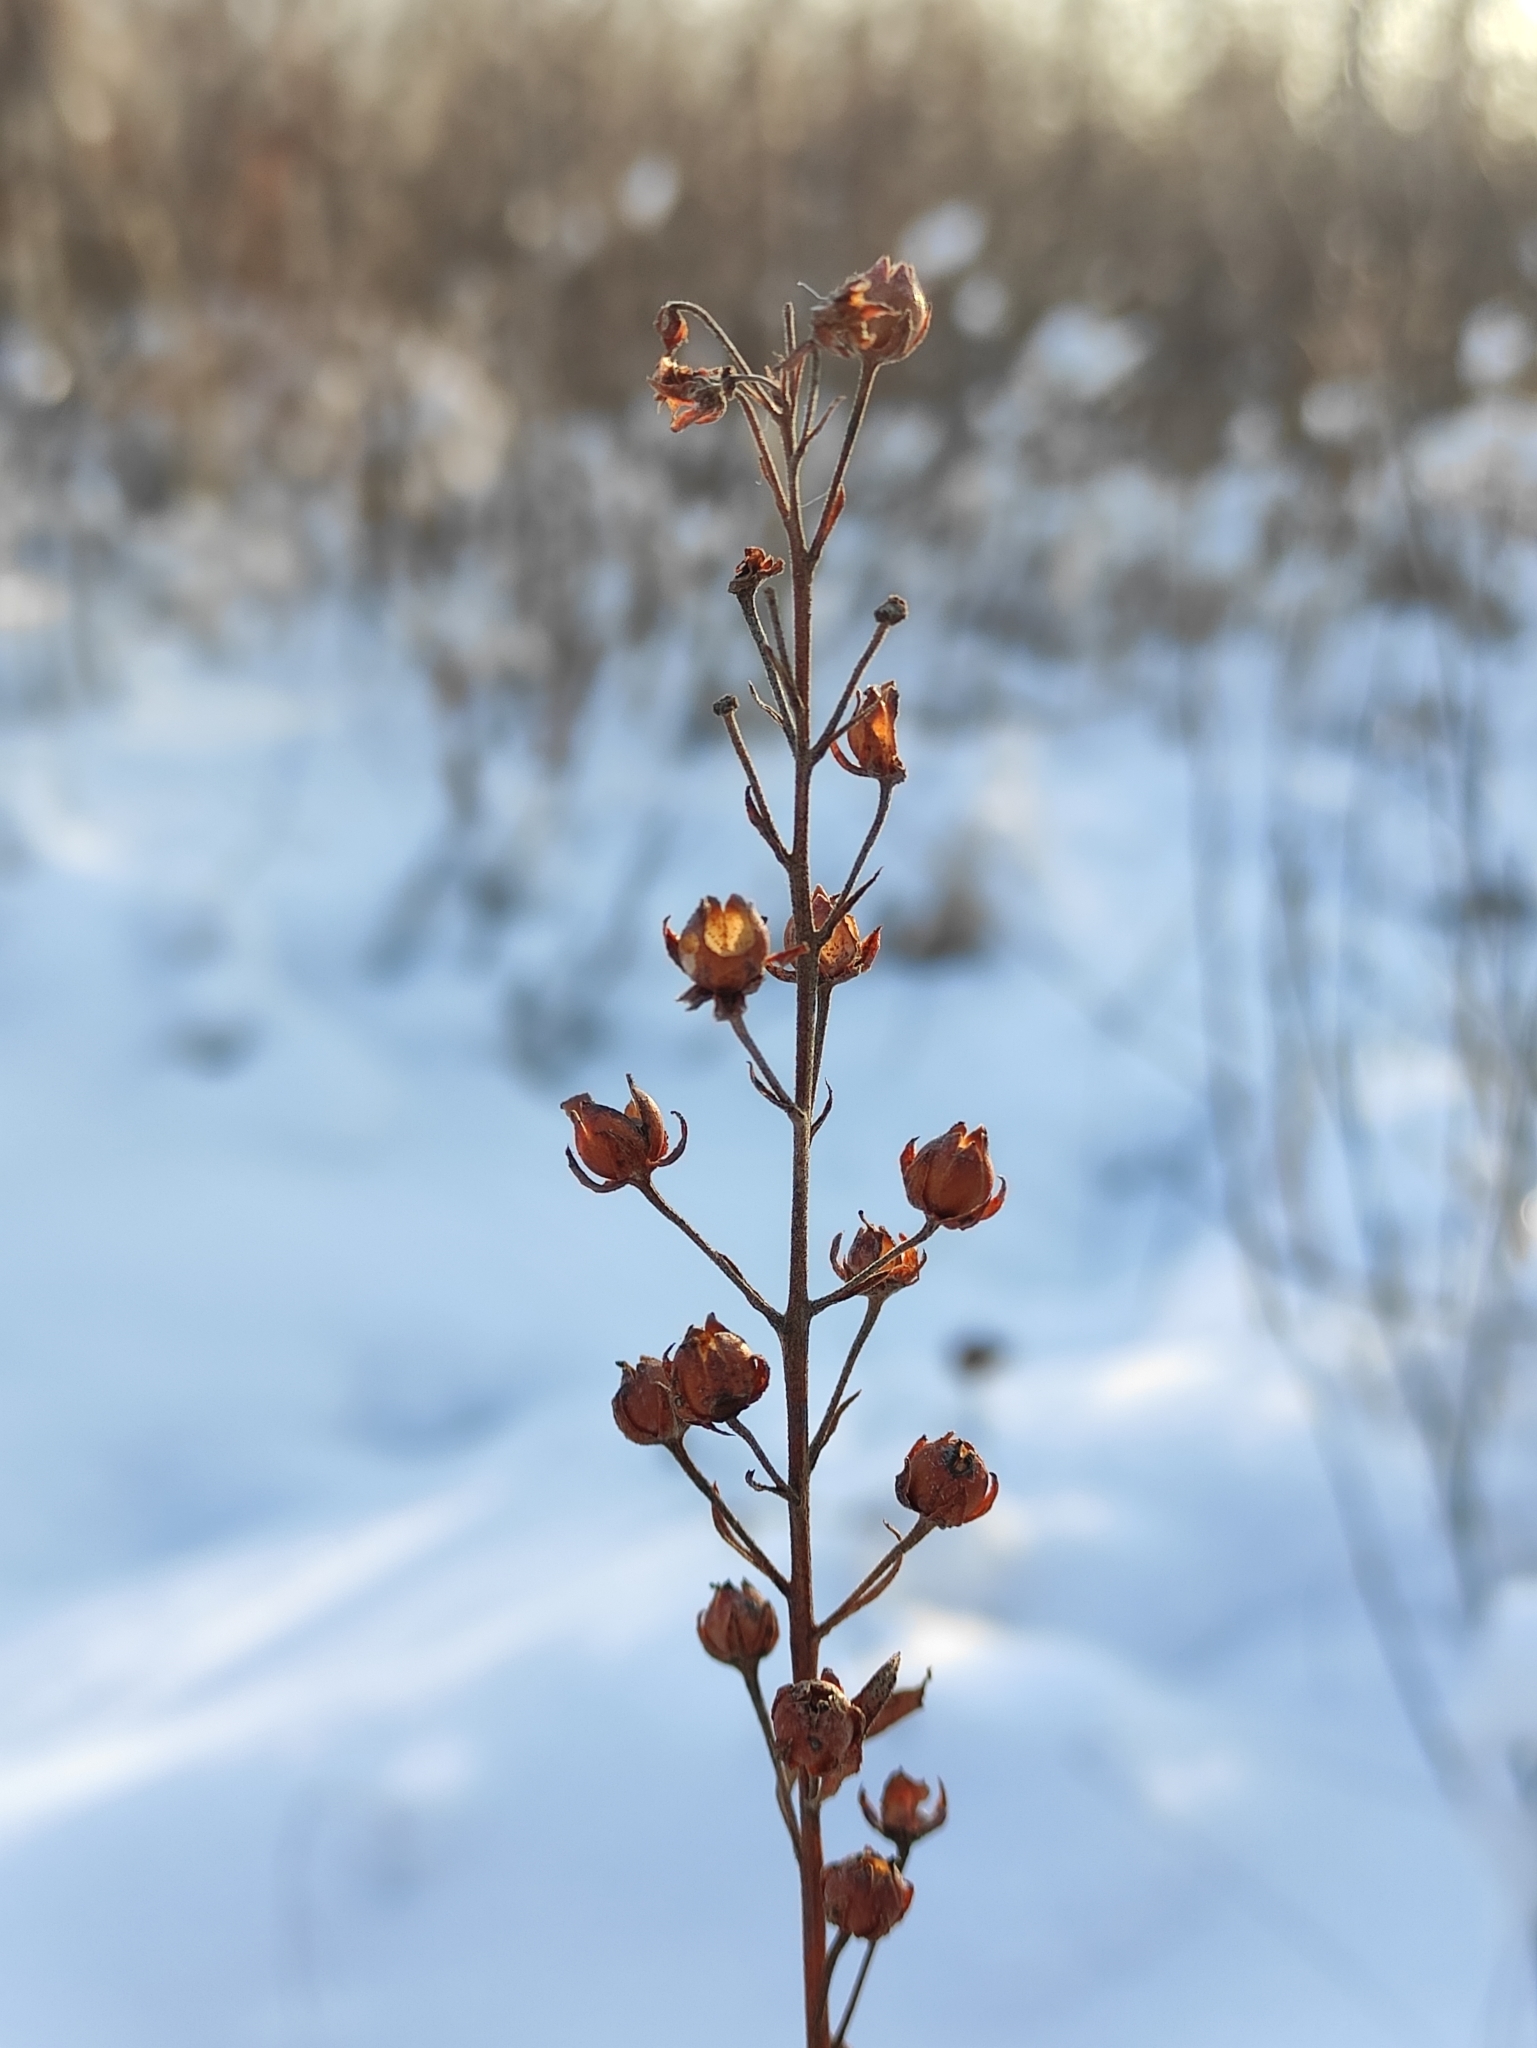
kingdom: Plantae
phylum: Tracheophyta
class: Magnoliopsida
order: Ericales
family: Primulaceae
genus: Lysimachia
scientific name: Lysimachia davurica
